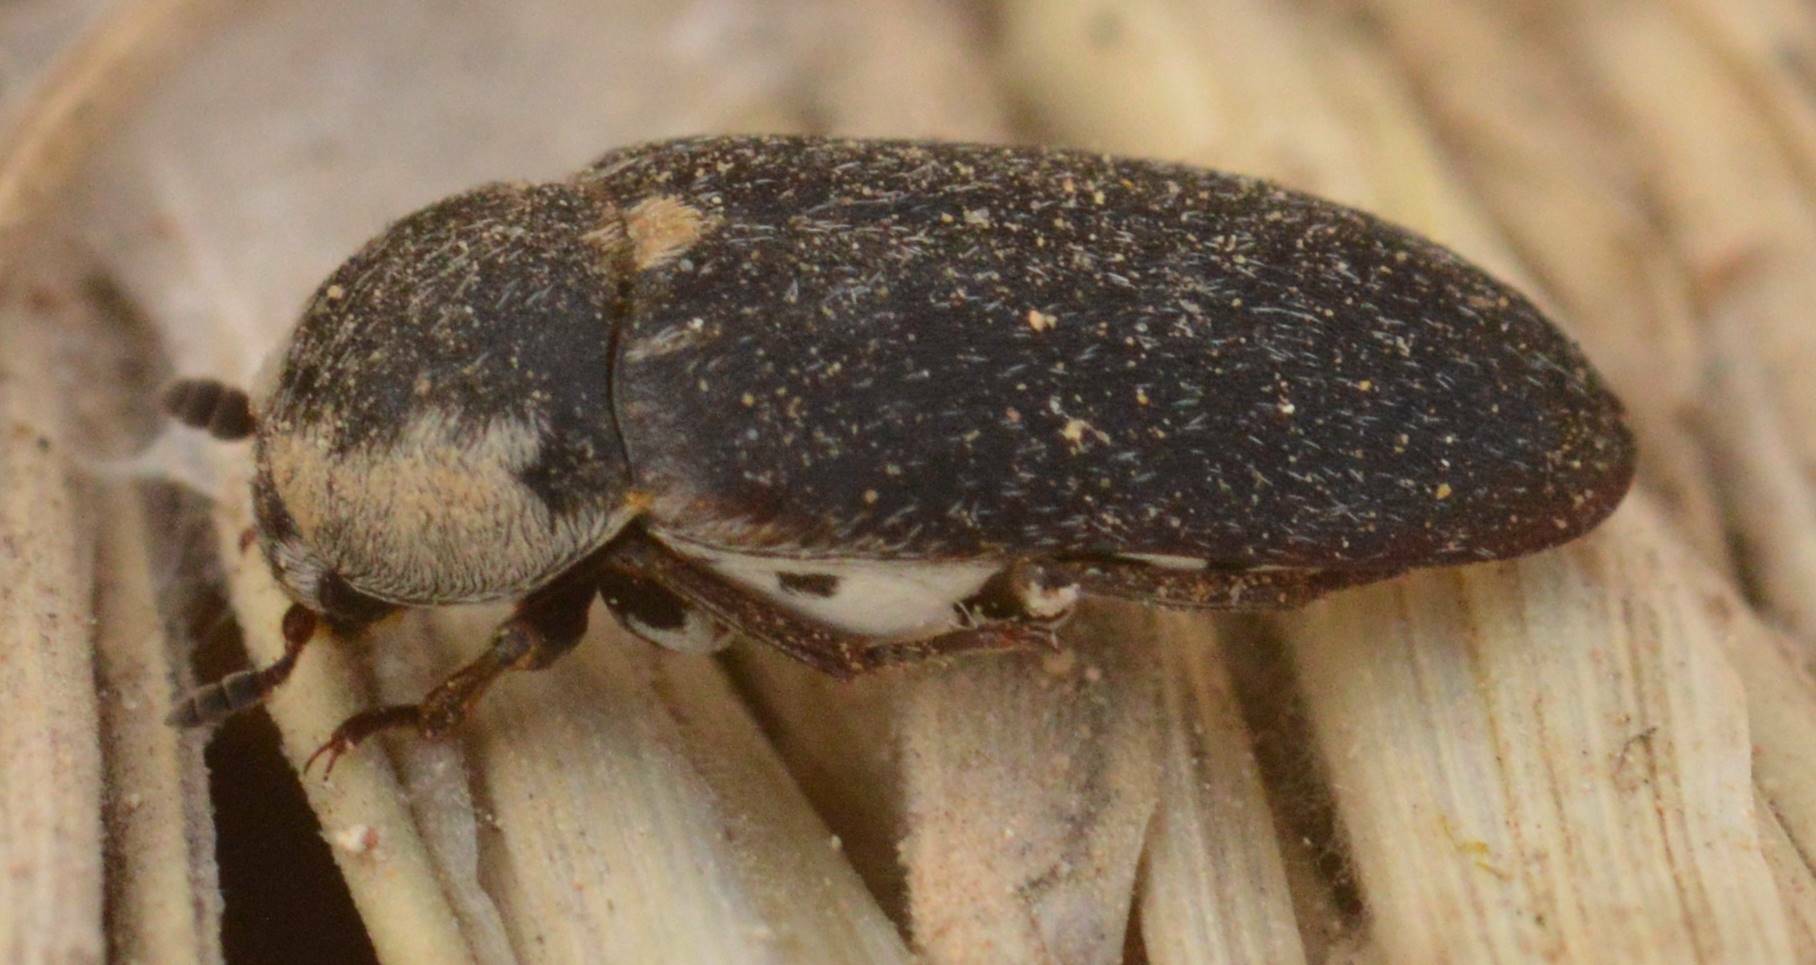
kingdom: Animalia
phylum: Arthropoda
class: Insecta
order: Coleoptera
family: Dermestidae
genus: Dermestes
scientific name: Dermestes frischi
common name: Frisch's carpet beetle
